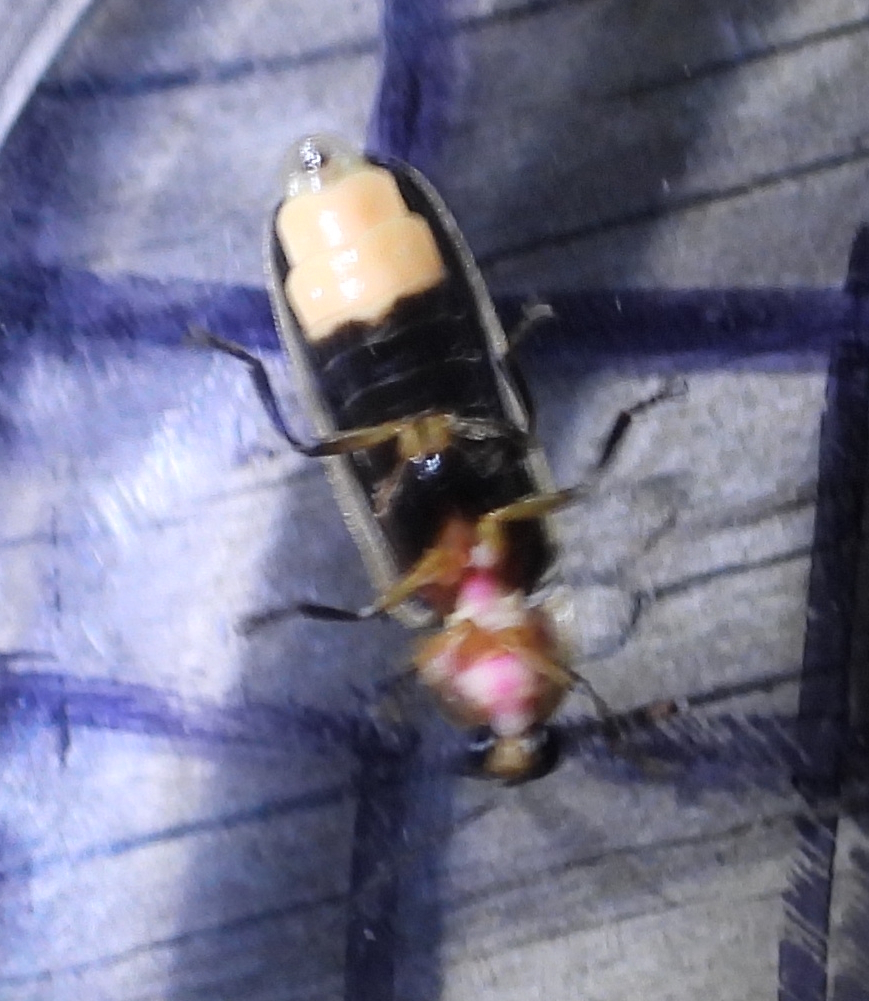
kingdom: Animalia
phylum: Arthropoda
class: Insecta
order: Coleoptera
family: Lampyridae
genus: Photinus
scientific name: Photinus pyralis
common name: Big dipper firefly
